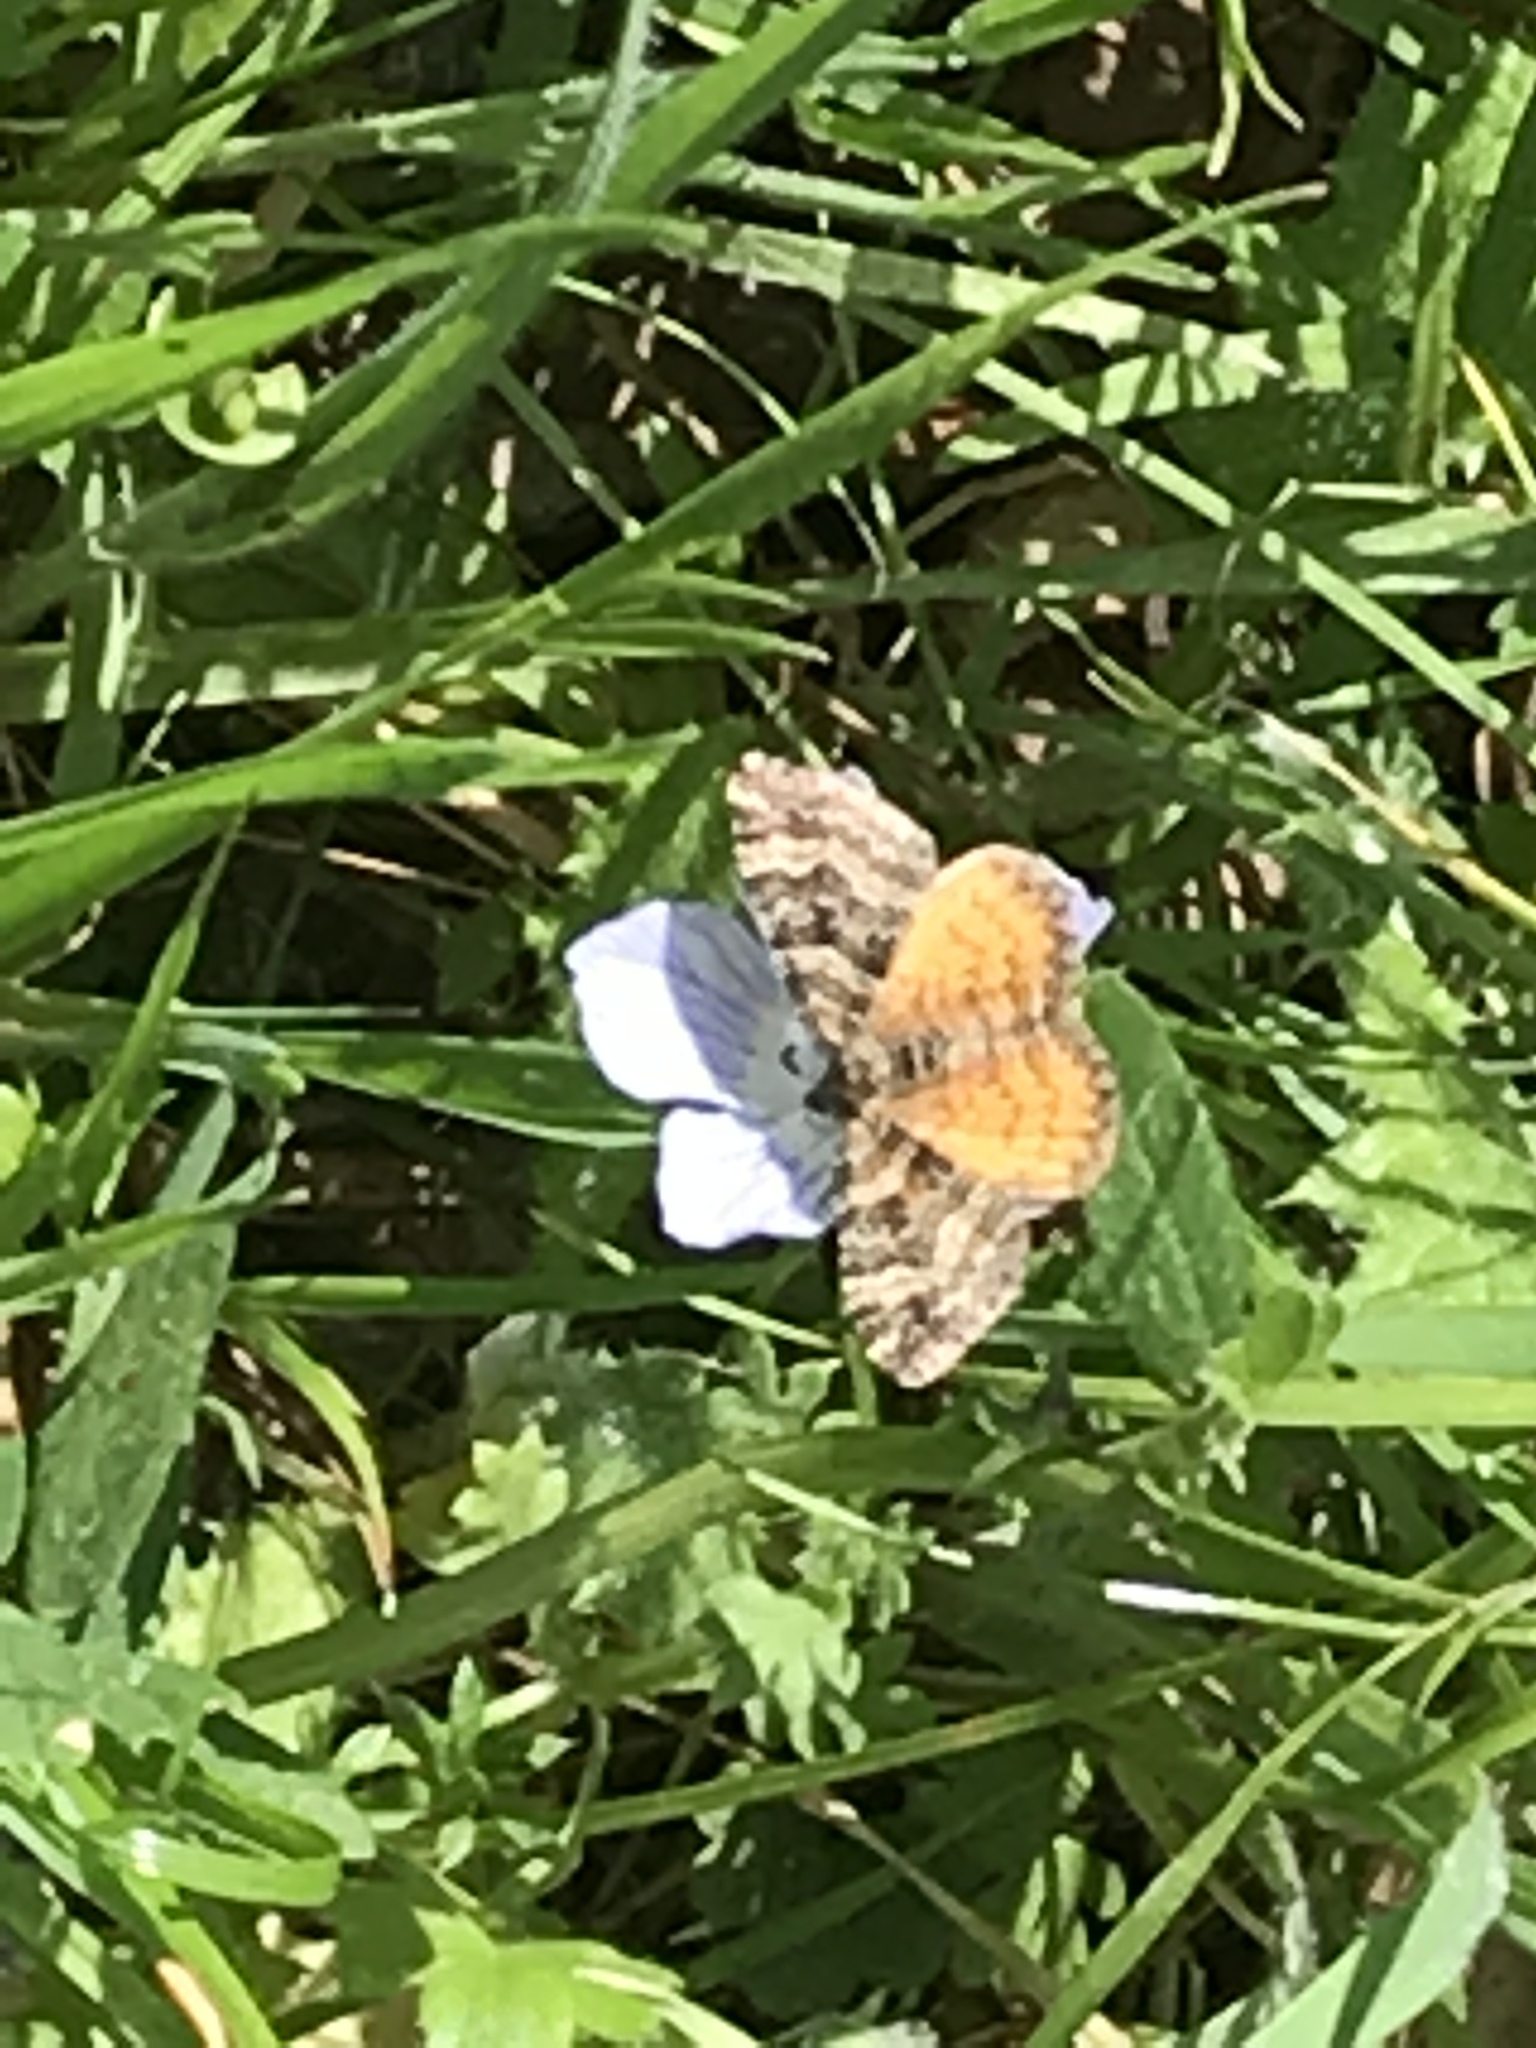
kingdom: Animalia
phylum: Arthropoda
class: Insecta
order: Lepidoptera
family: Geometridae
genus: Epirrhoe
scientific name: Epirrhoe plebeculata
